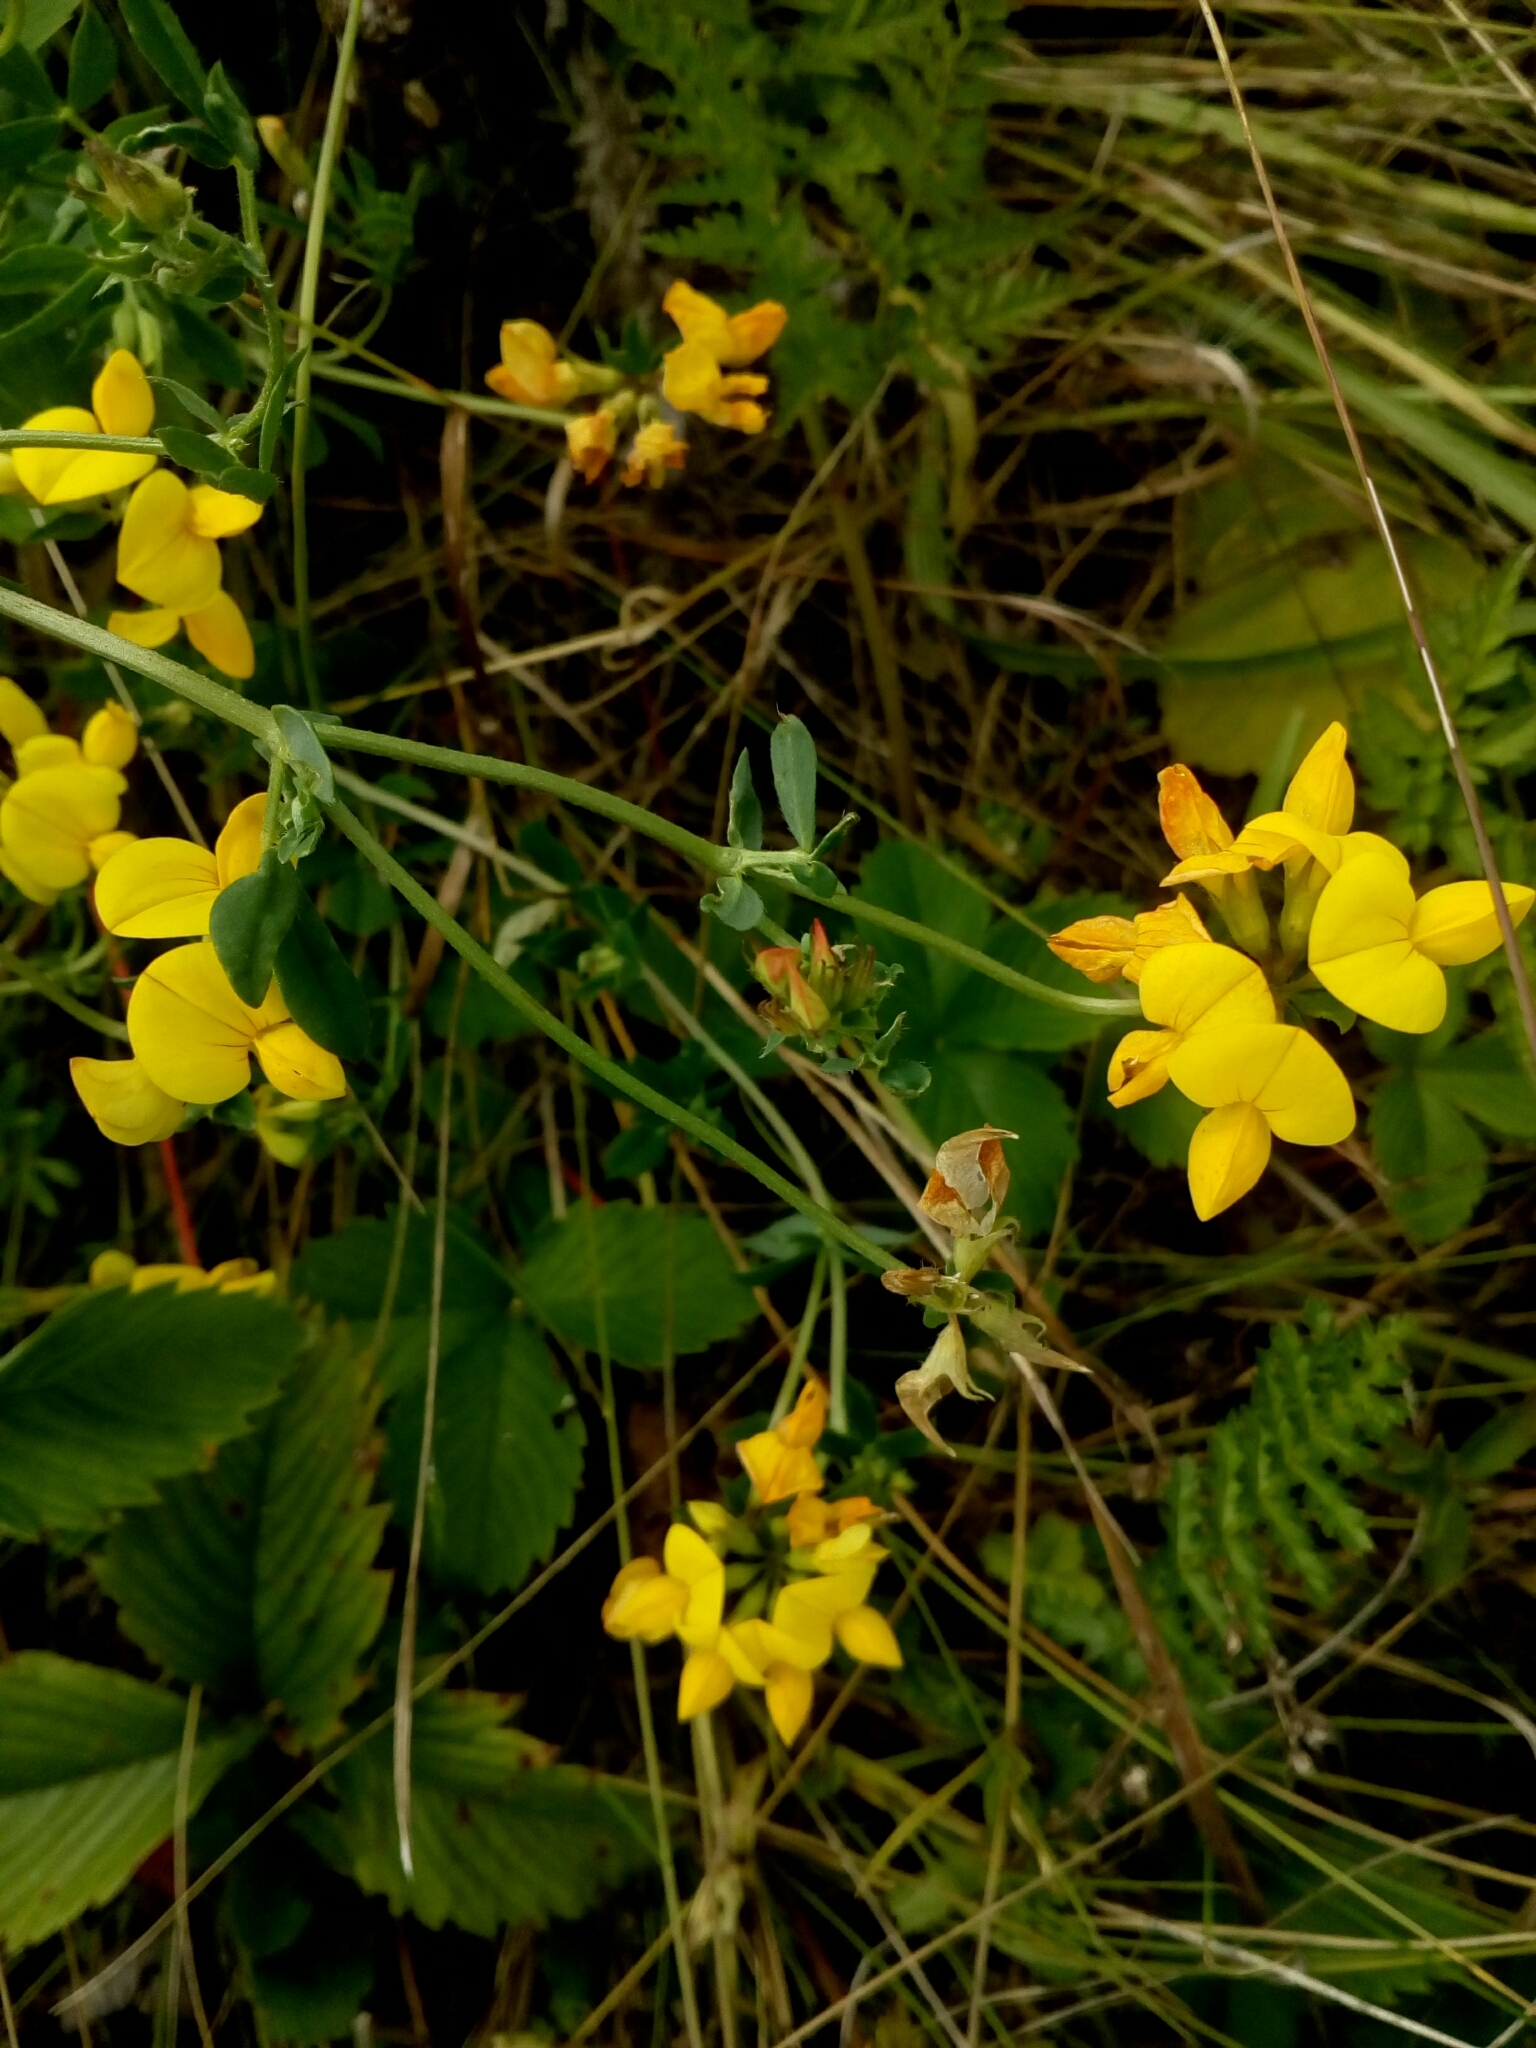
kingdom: Plantae
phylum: Tracheophyta
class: Magnoliopsida
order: Fabales
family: Fabaceae
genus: Lotus
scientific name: Lotus corniculatus
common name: Common bird's-foot-trefoil
